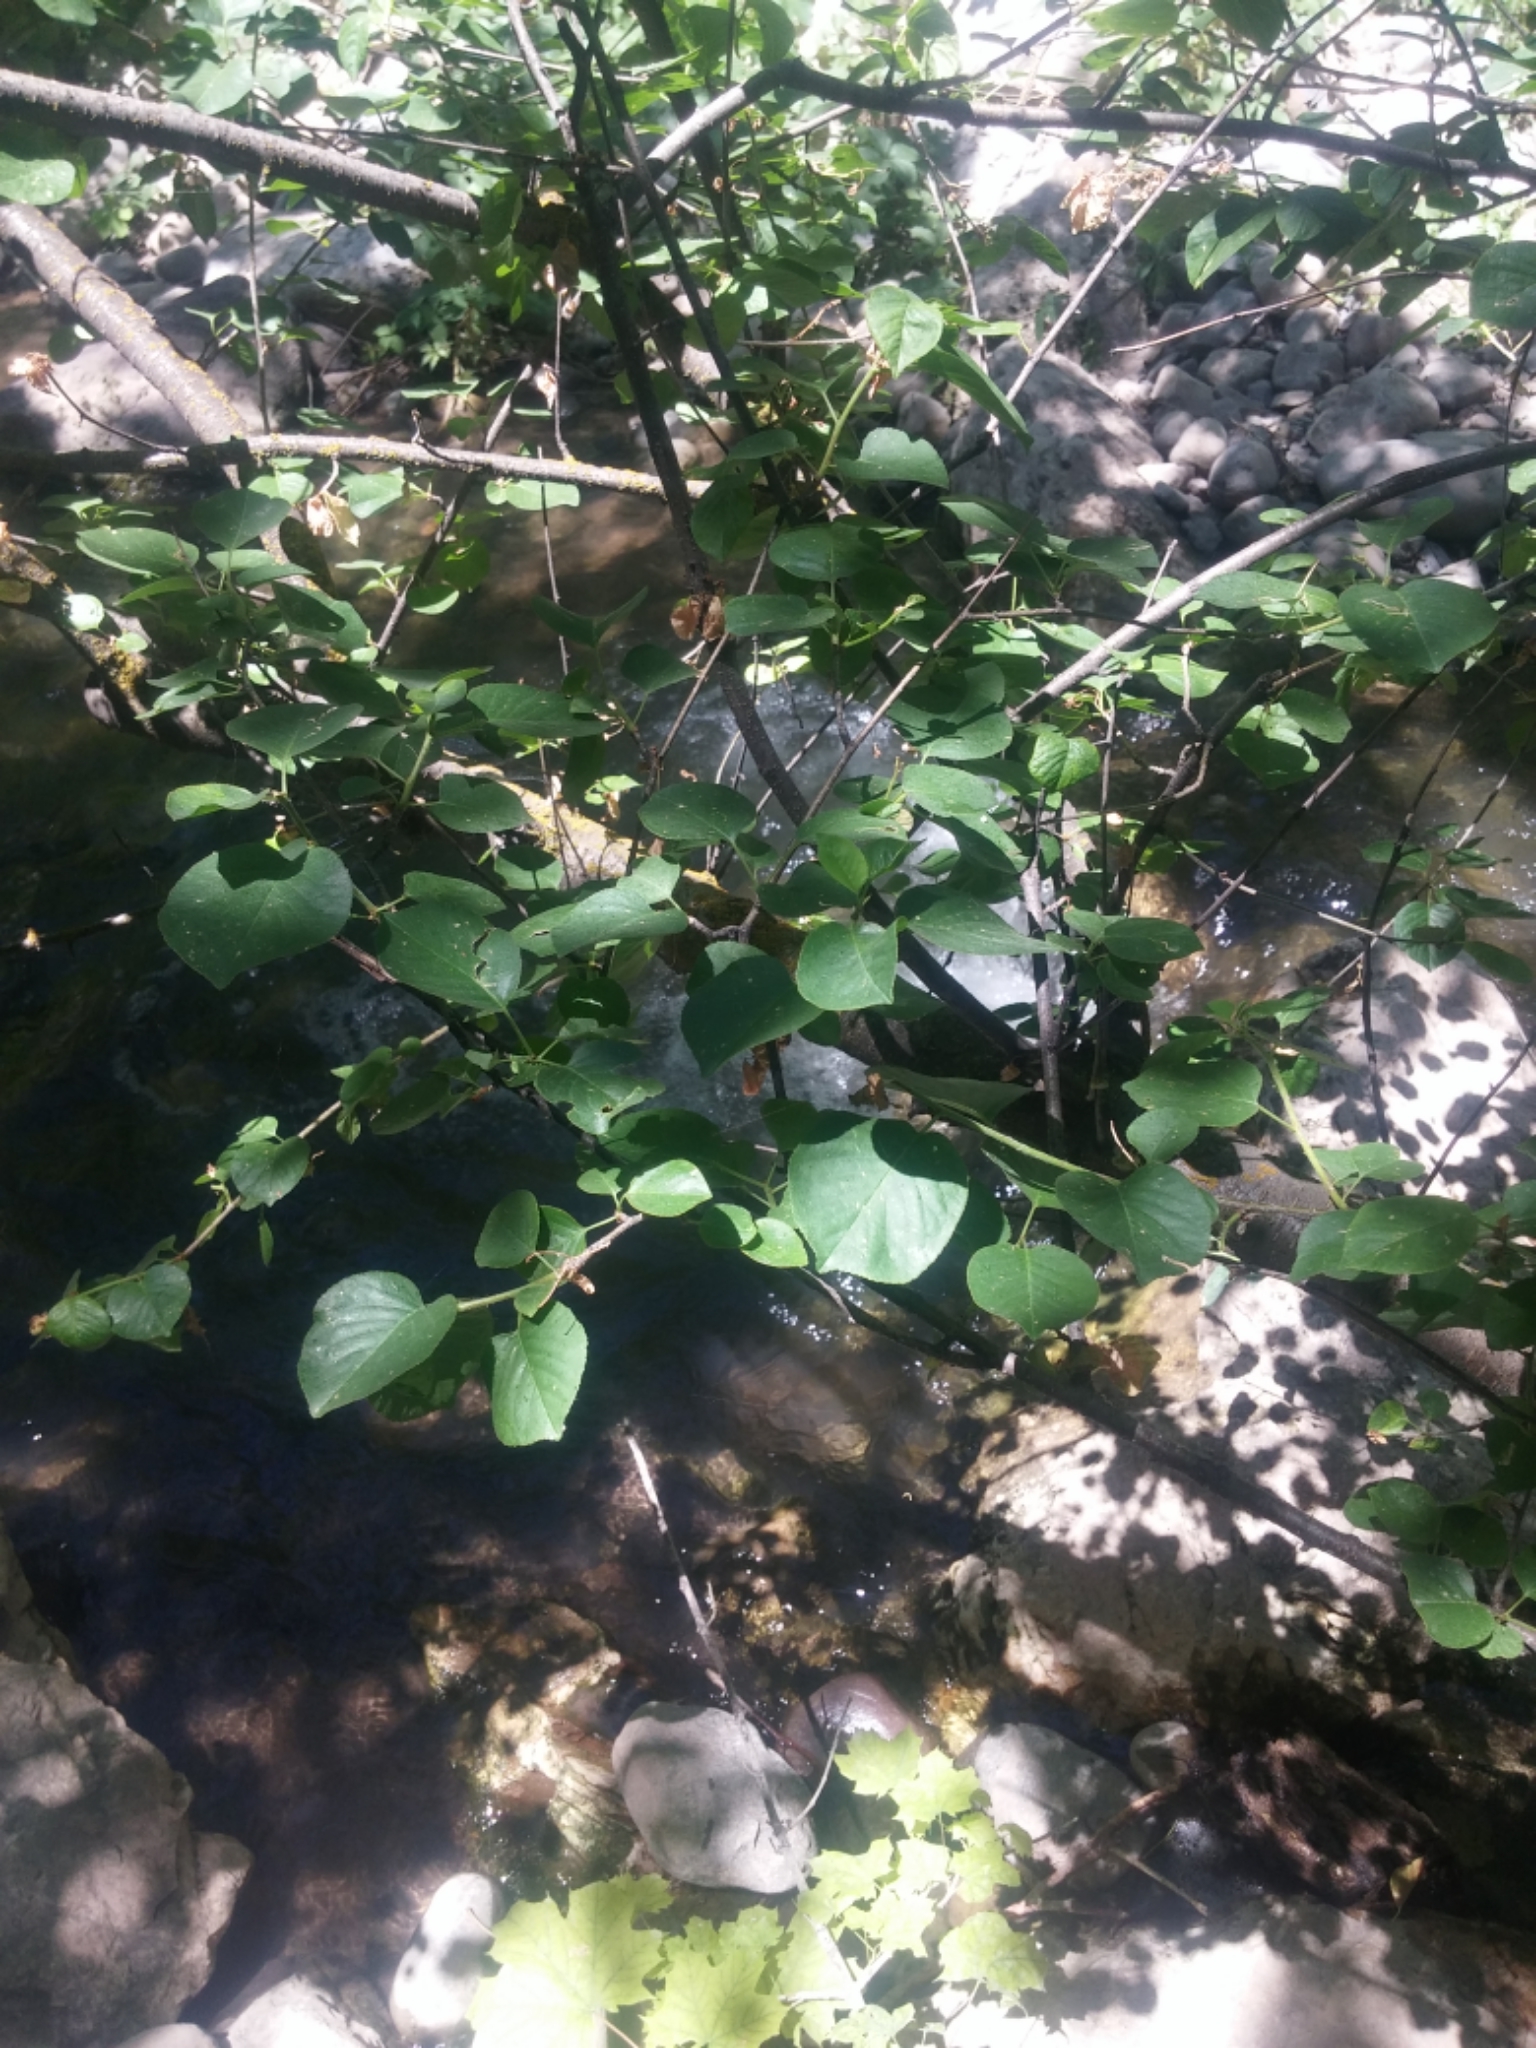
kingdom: Plantae
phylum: Tracheophyta
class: Magnoliopsida
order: Rosales
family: Rosaceae
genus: Prunus
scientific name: Prunus mahaleb
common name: Mahaleb cherry
